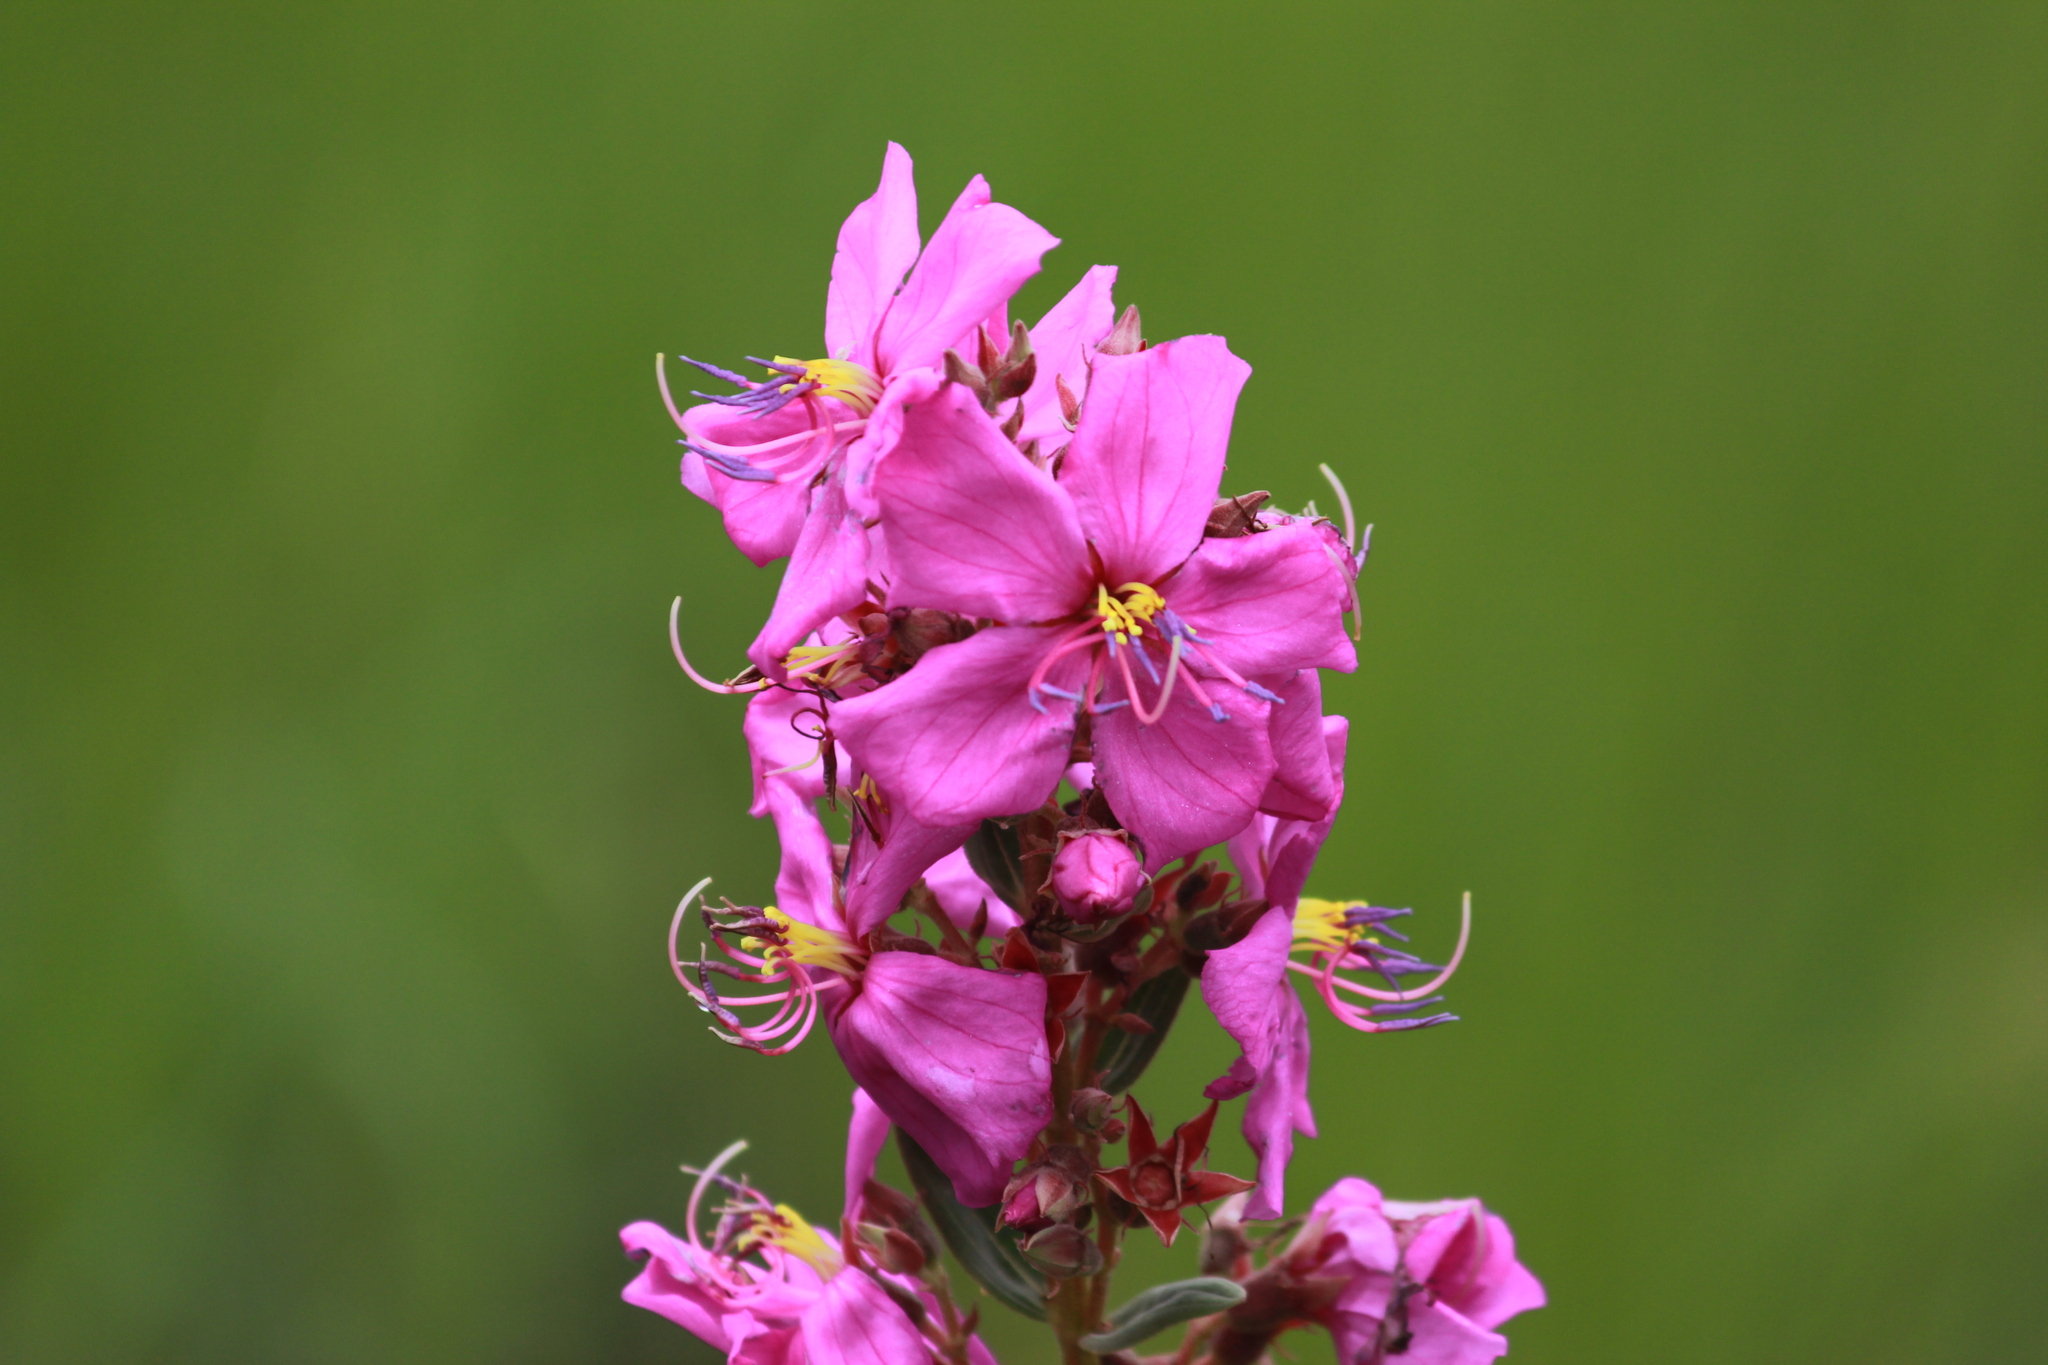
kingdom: Plantae
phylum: Tracheophyta
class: Magnoliopsida
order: Myrtales
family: Melastomataceae
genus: Argyrella
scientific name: Argyrella canescens
